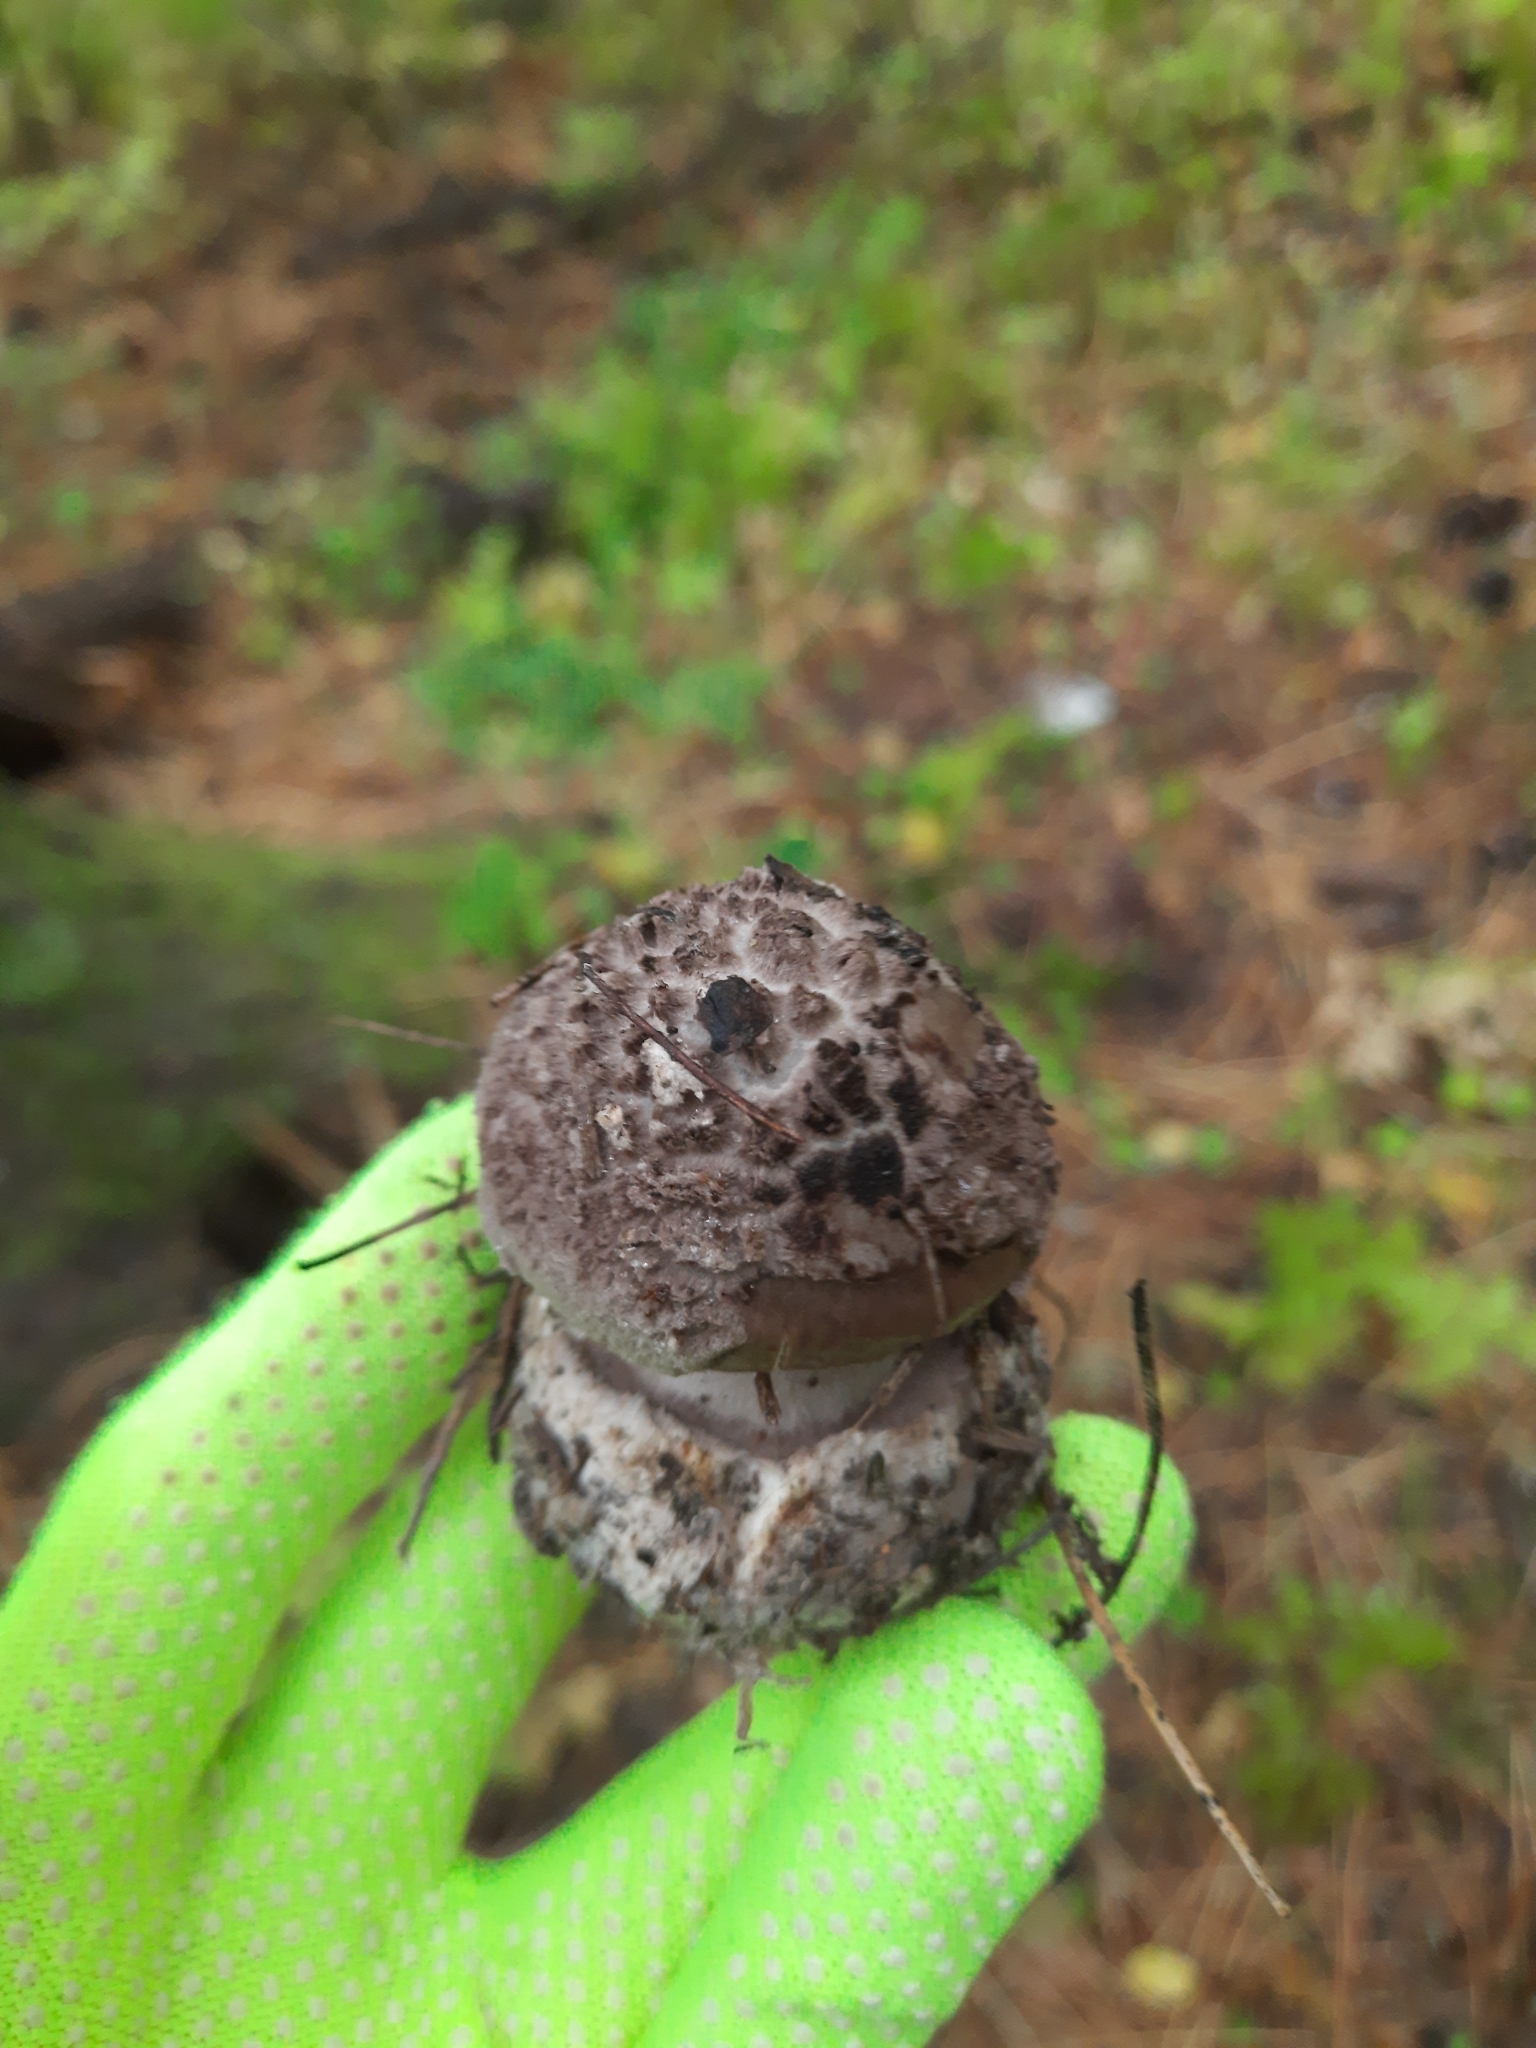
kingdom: Fungi
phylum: Basidiomycota
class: Agaricomycetes
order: Agaricales
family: Amanitaceae
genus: Amanita
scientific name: Amanita porphyria
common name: Grey veiled amanita
